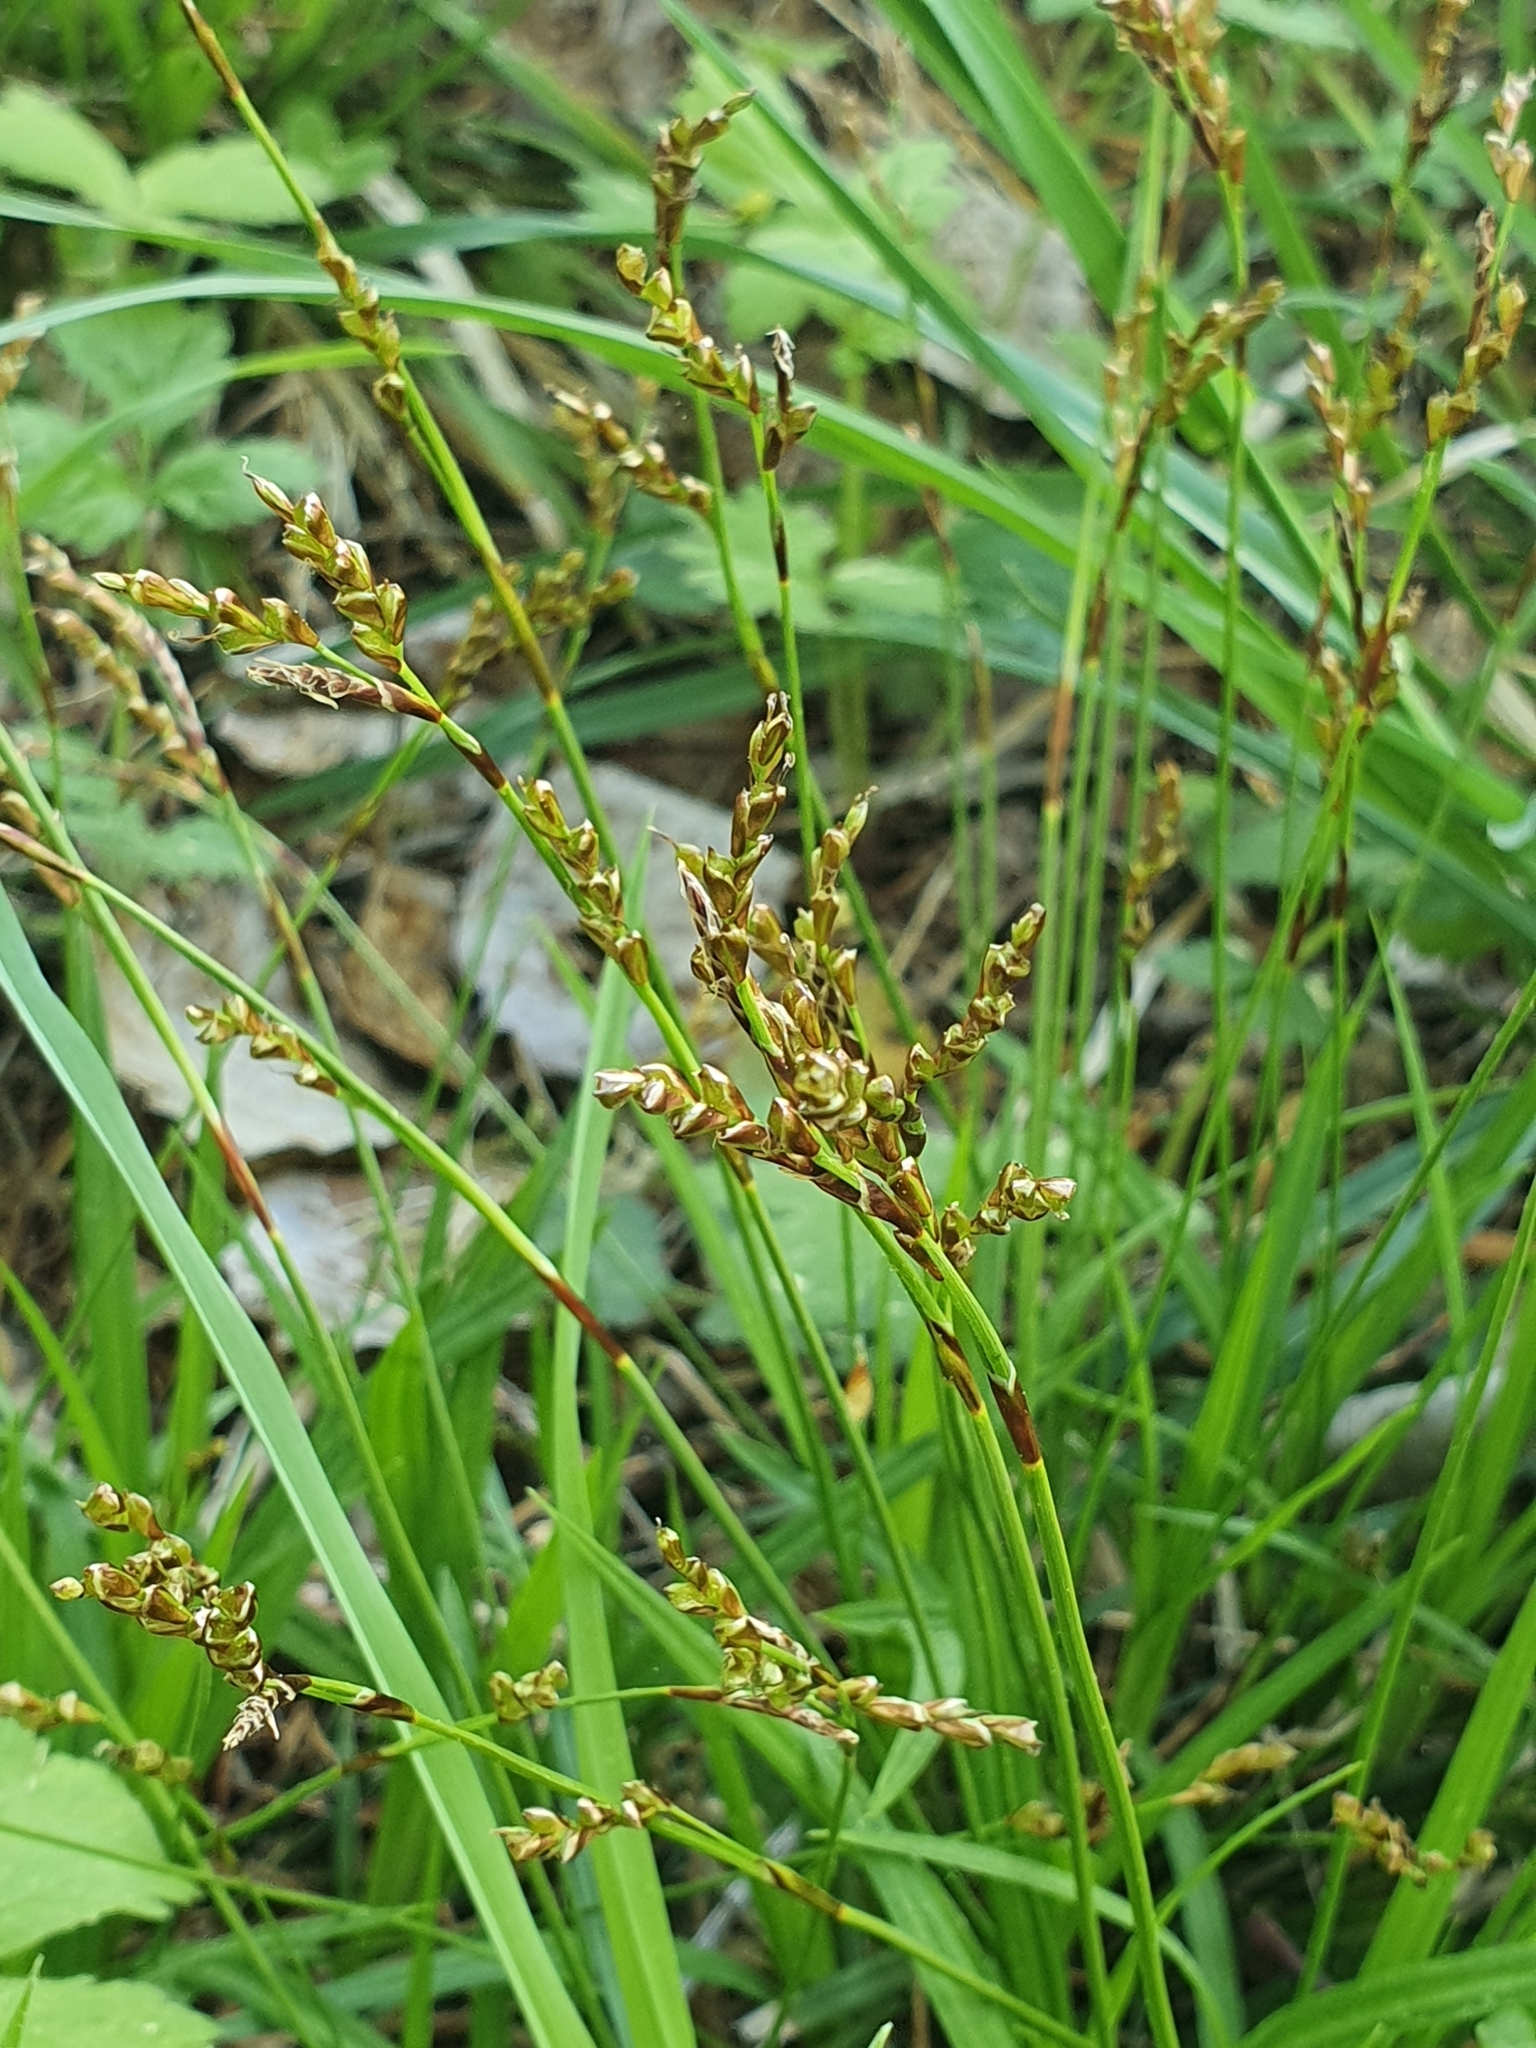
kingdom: Plantae
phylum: Tracheophyta
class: Liliopsida
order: Poales
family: Cyperaceae
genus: Carex
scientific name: Carex digitata
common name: Fingered sedge
